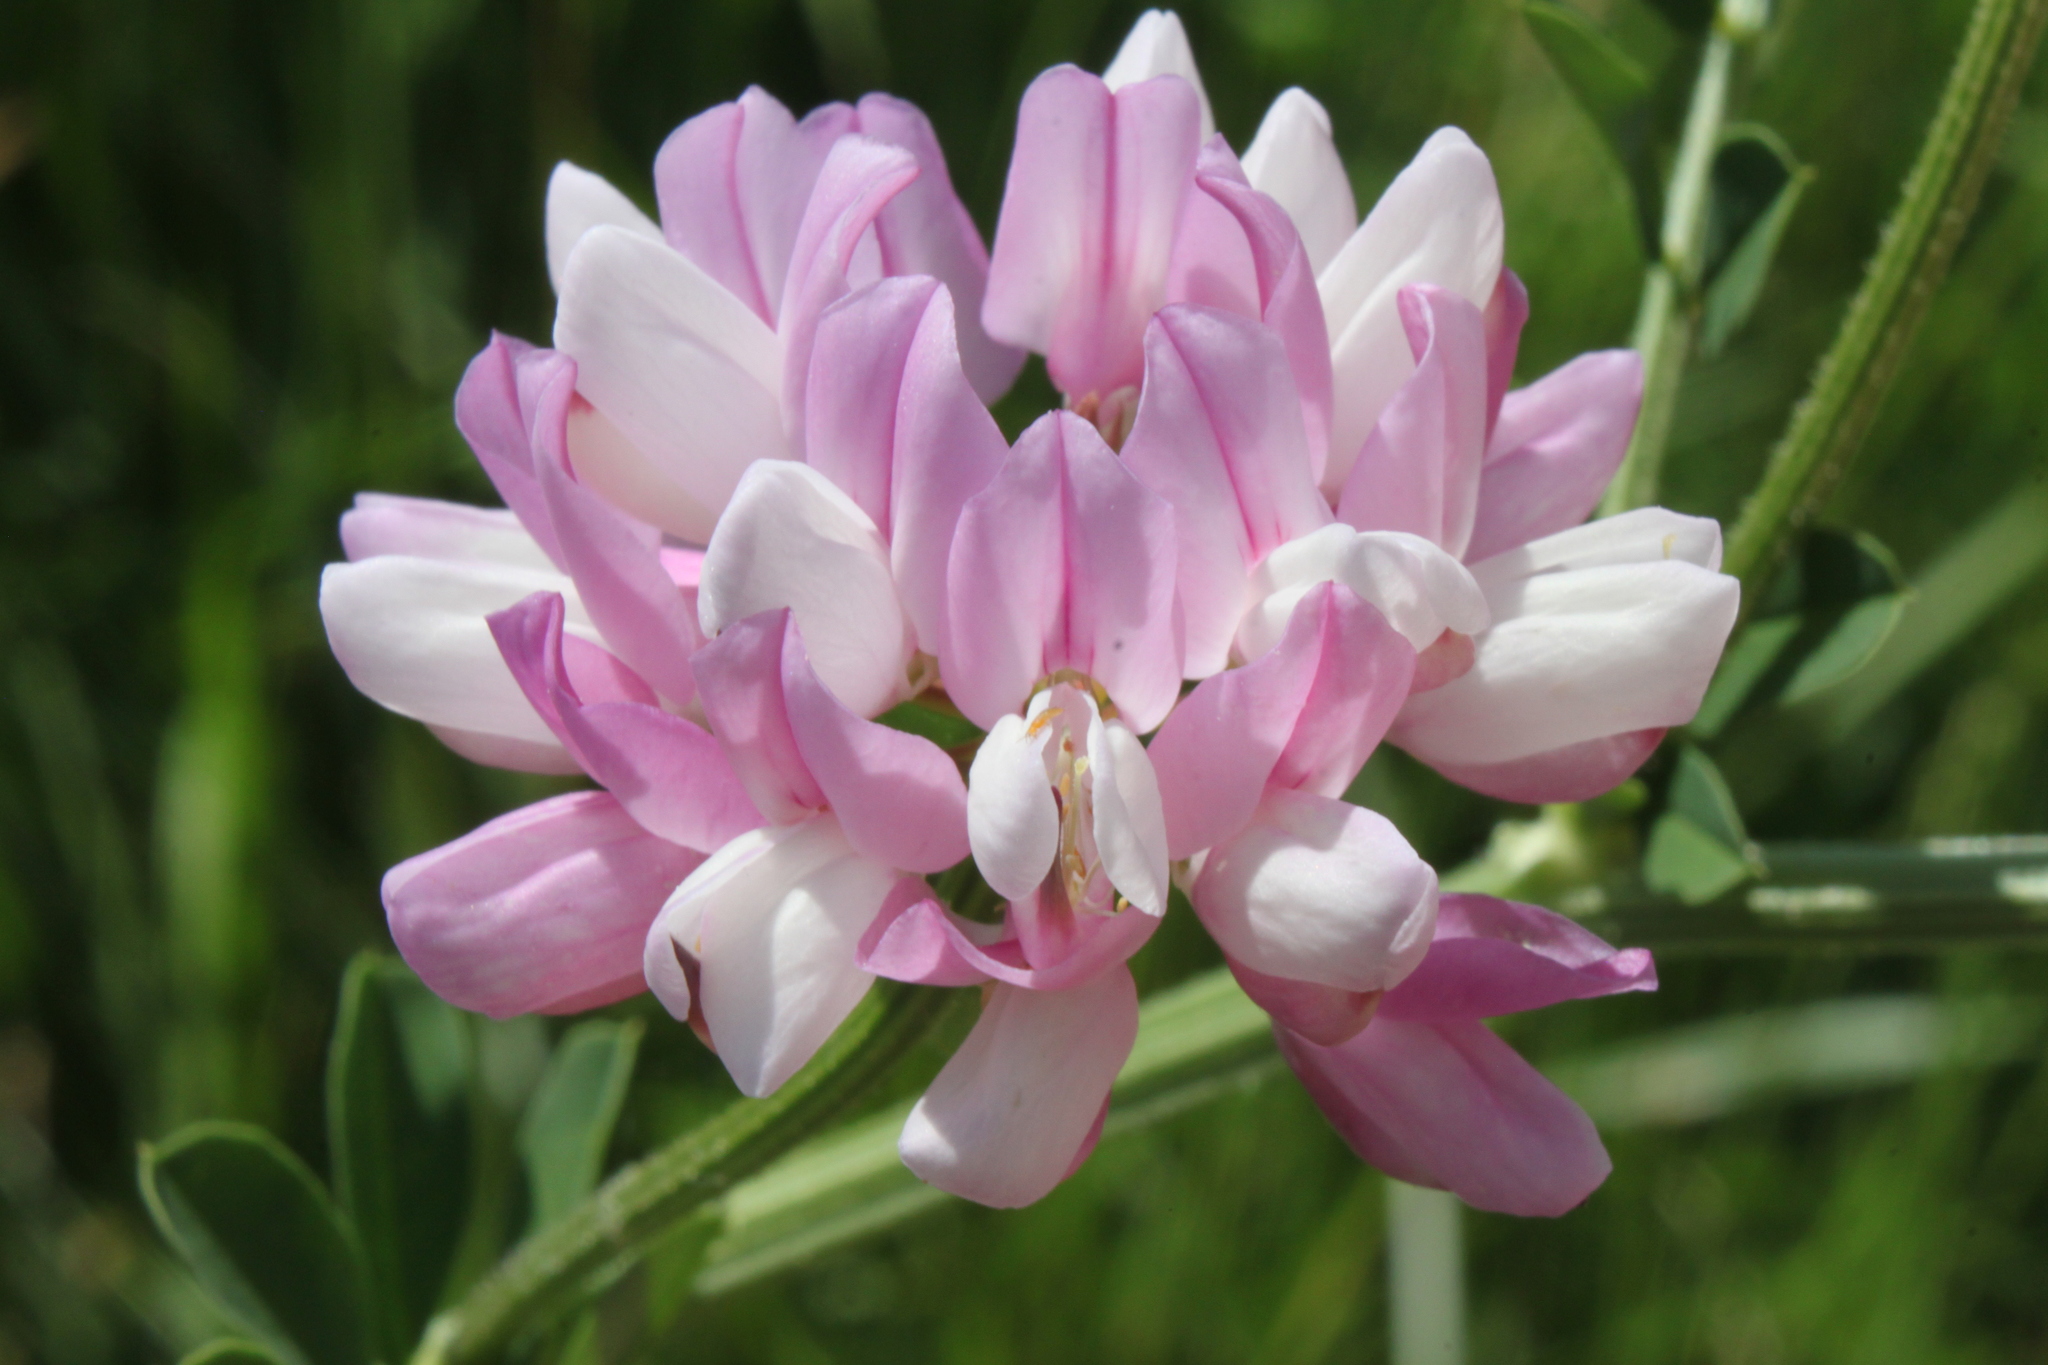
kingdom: Plantae
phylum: Tracheophyta
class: Magnoliopsida
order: Fabales
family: Fabaceae
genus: Coronilla
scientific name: Coronilla varia
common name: Crownvetch
